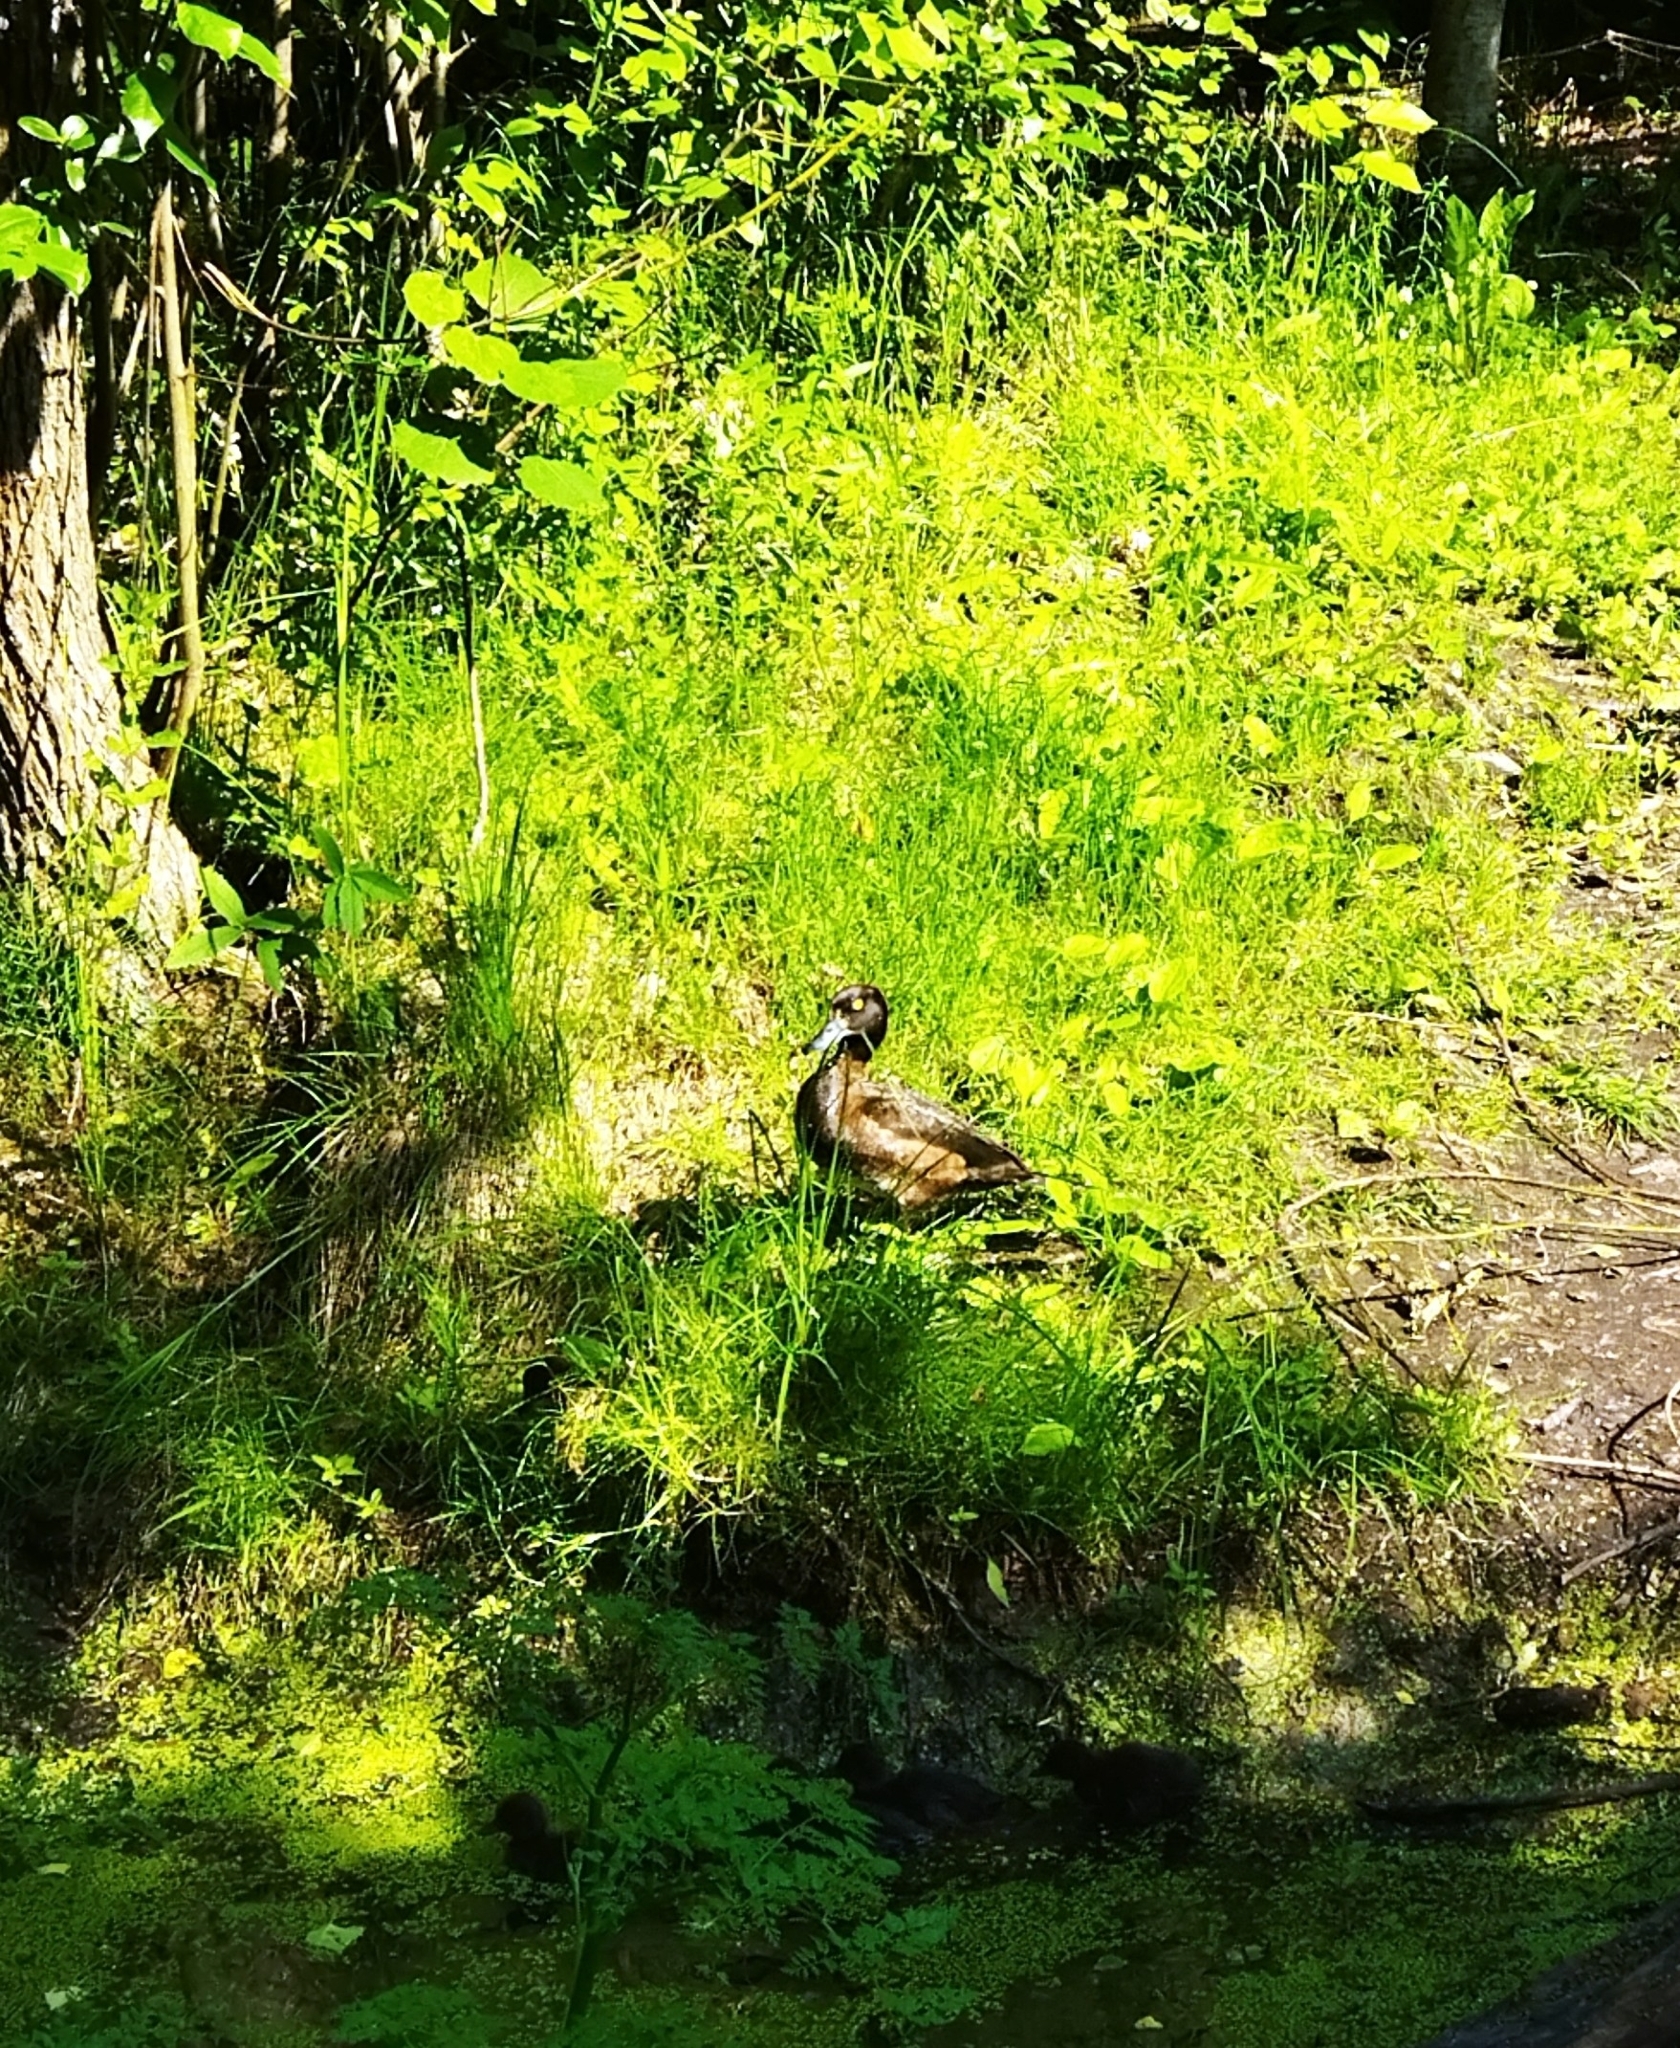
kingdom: Animalia
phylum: Chordata
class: Aves
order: Anseriformes
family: Anatidae
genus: Aythya
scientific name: Aythya fuligula
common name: Tufted duck
